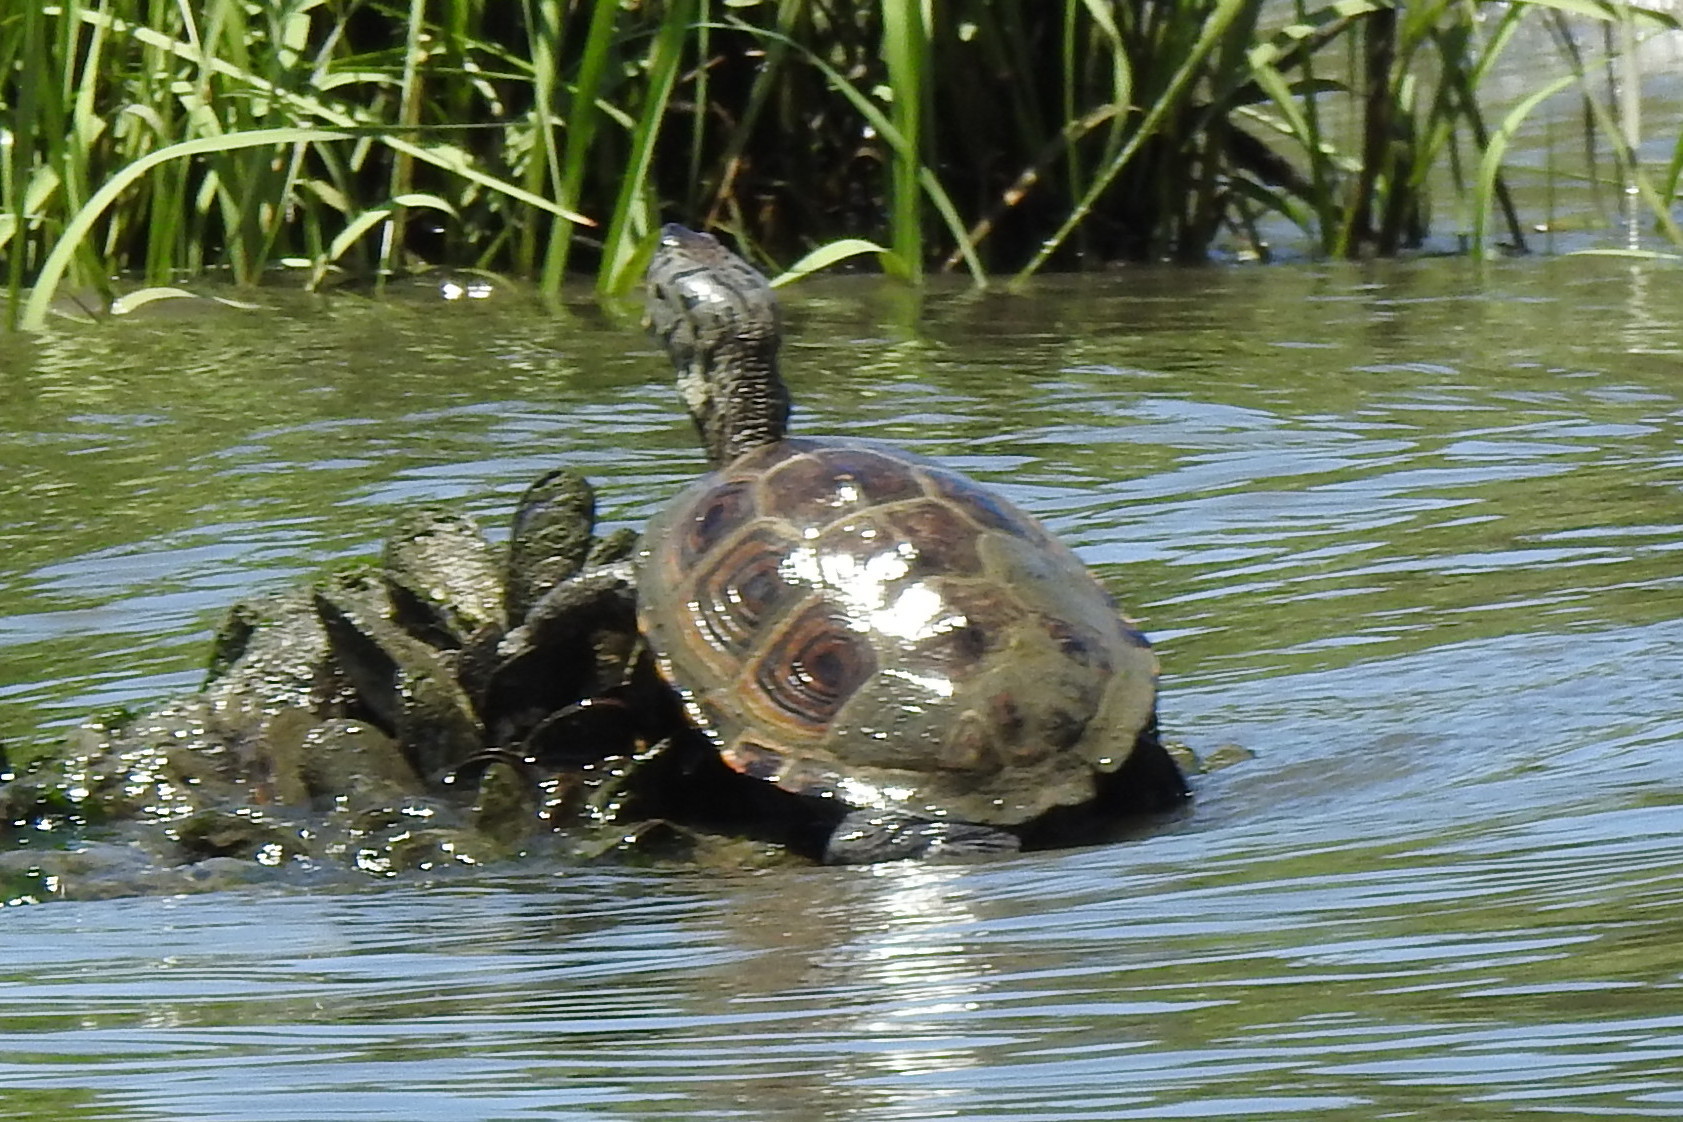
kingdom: Animalia
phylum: Chordata
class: Testudines
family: Emydidae
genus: Malaclemys
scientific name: Malaclemys terrapin
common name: Diamondback terrapin
